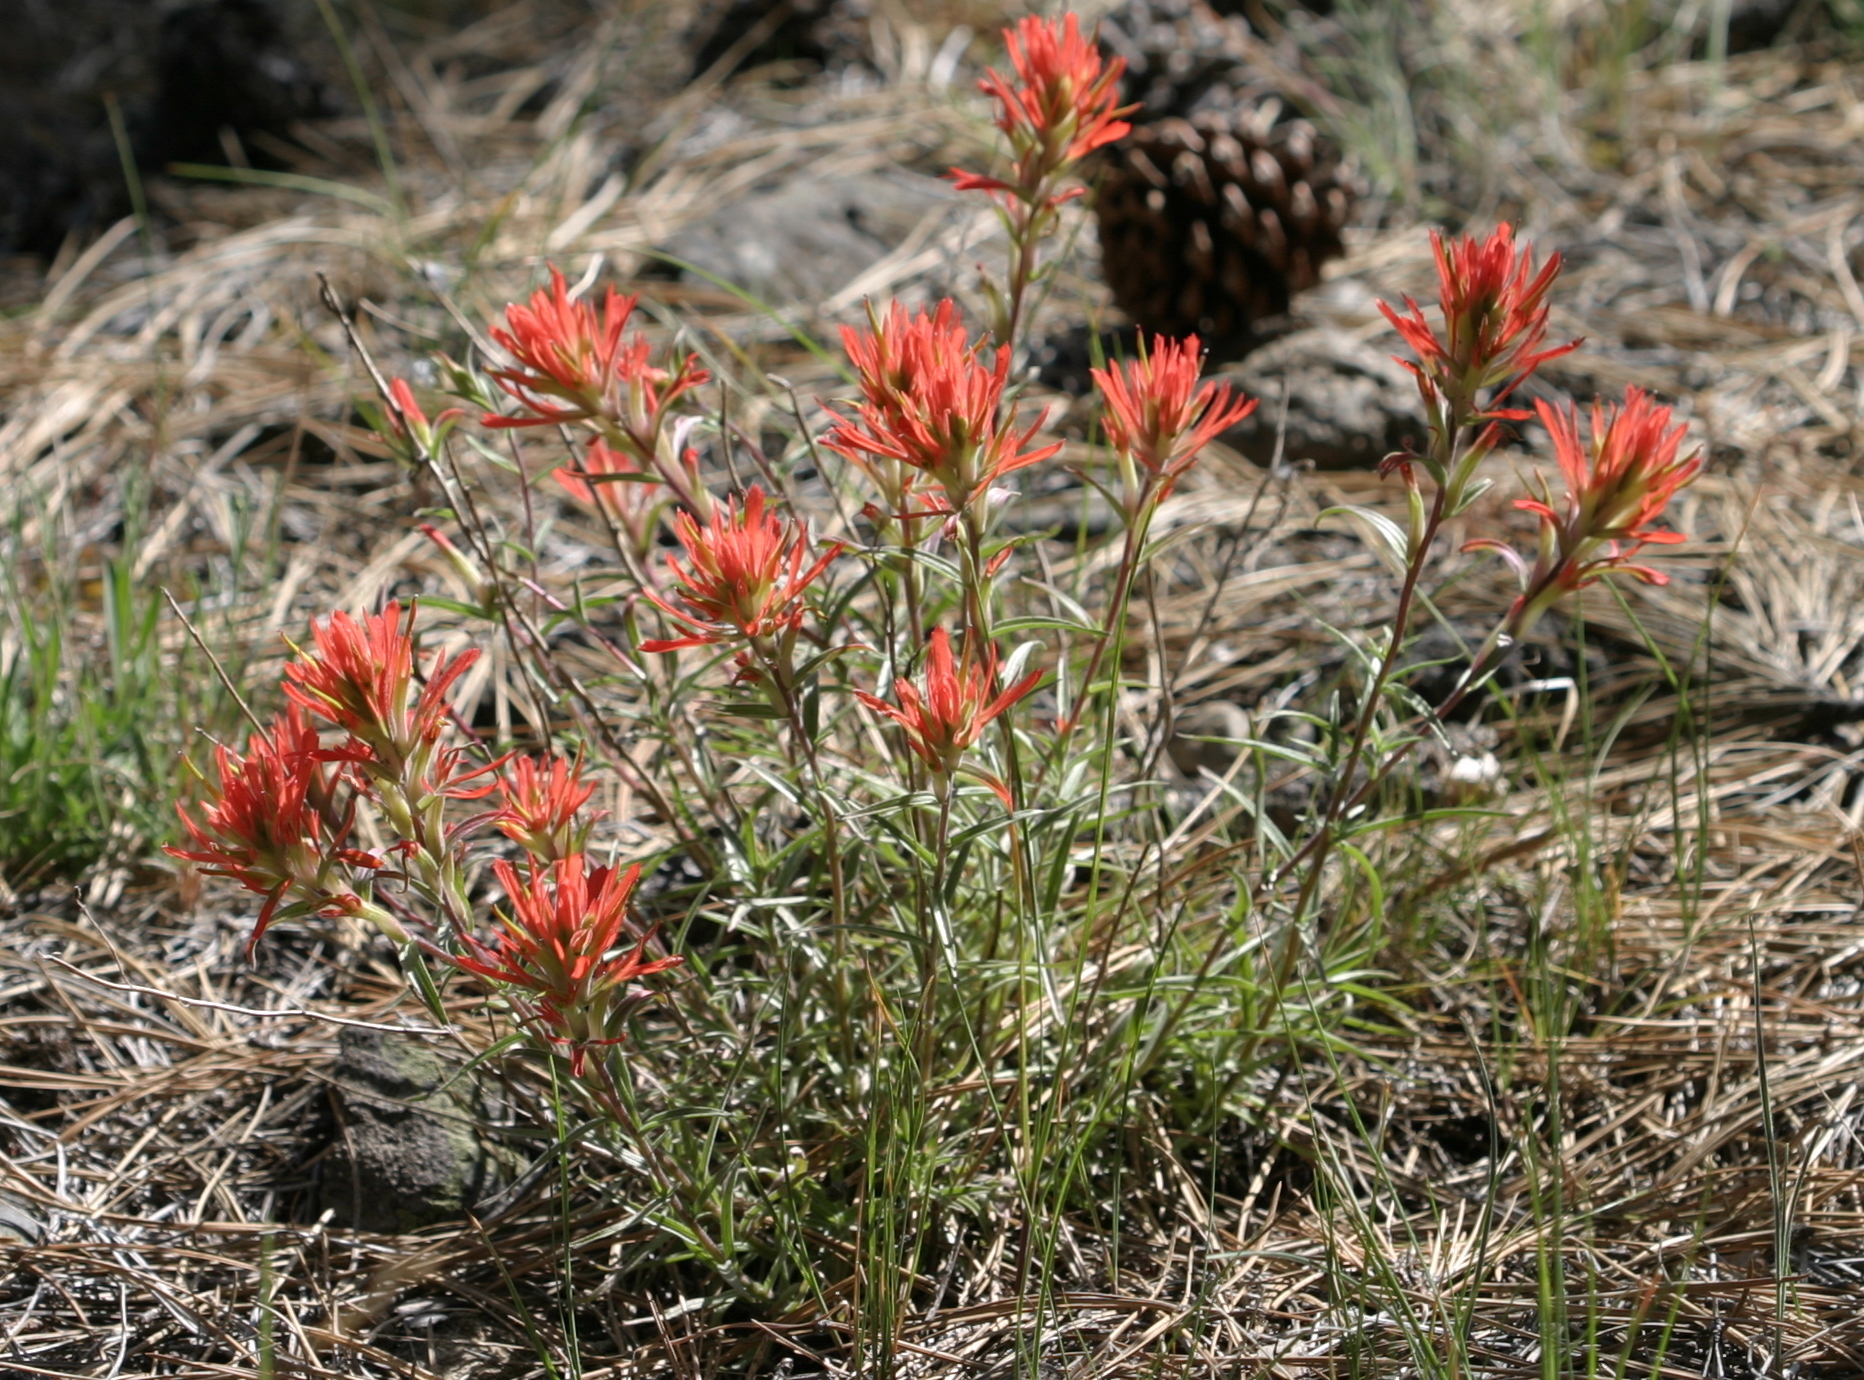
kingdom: Plantae
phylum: Tracheophyta
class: Magnoliopsida
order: Lamiales
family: Orobanchaceae
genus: Castilleja
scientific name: Castilleja miniata
